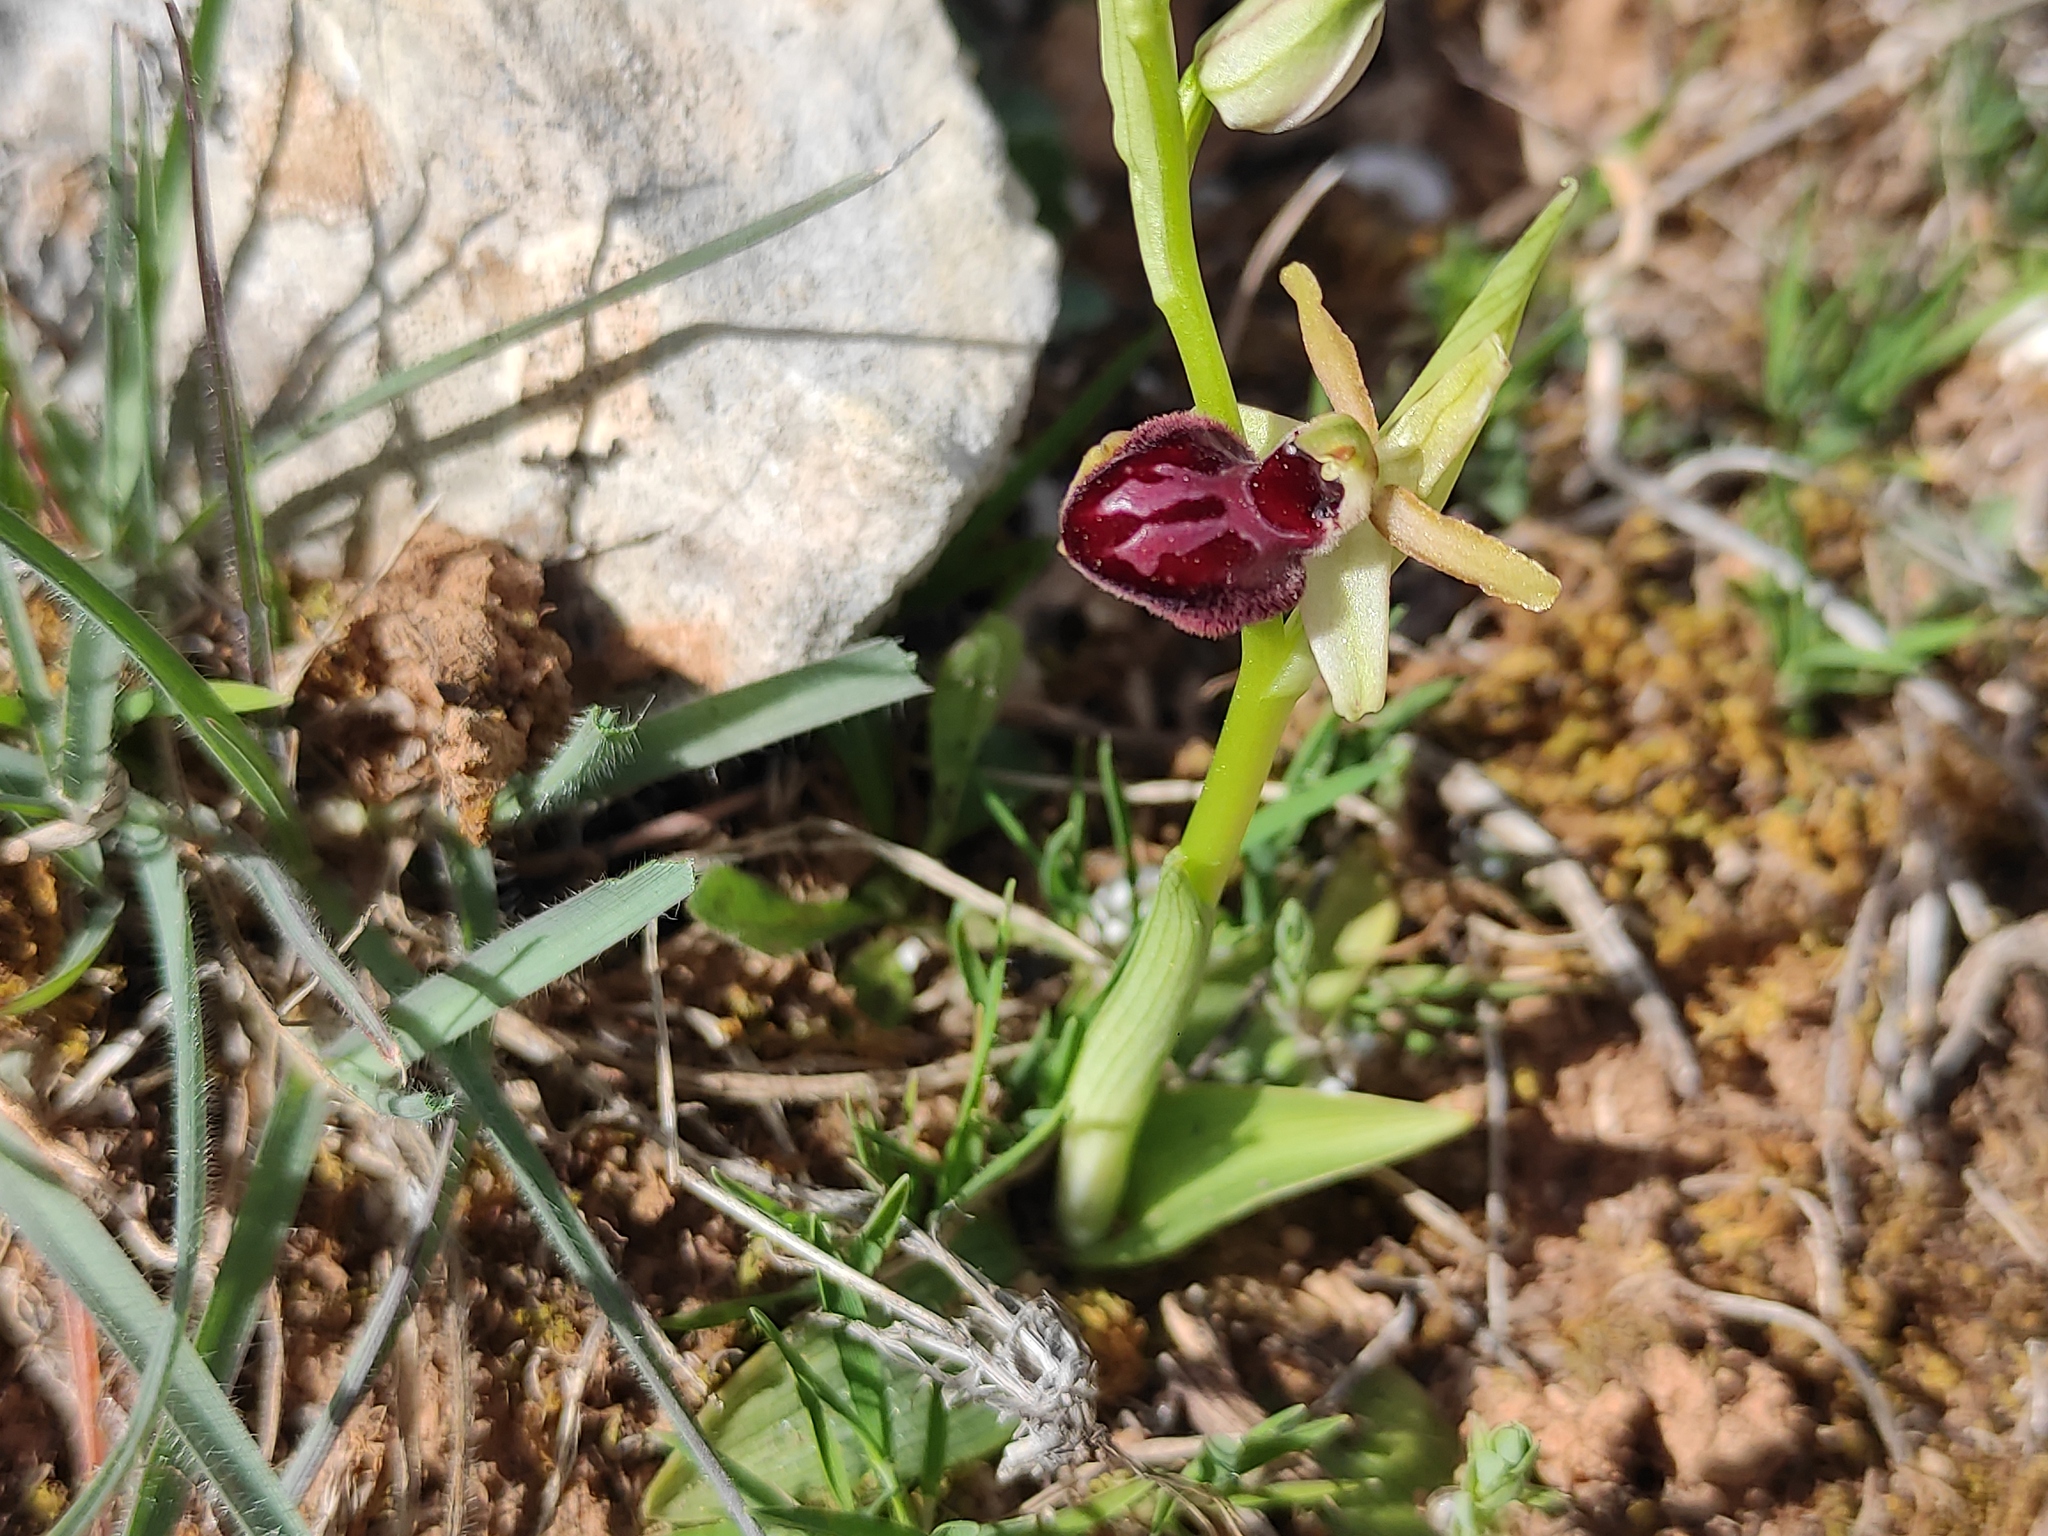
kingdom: Plantae
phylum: Tracheophyta
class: Liliopsida
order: Asparagales
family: Orchidaceae
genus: Ophrys
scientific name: Ophrys sphegodes
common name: Early spider-orchid
